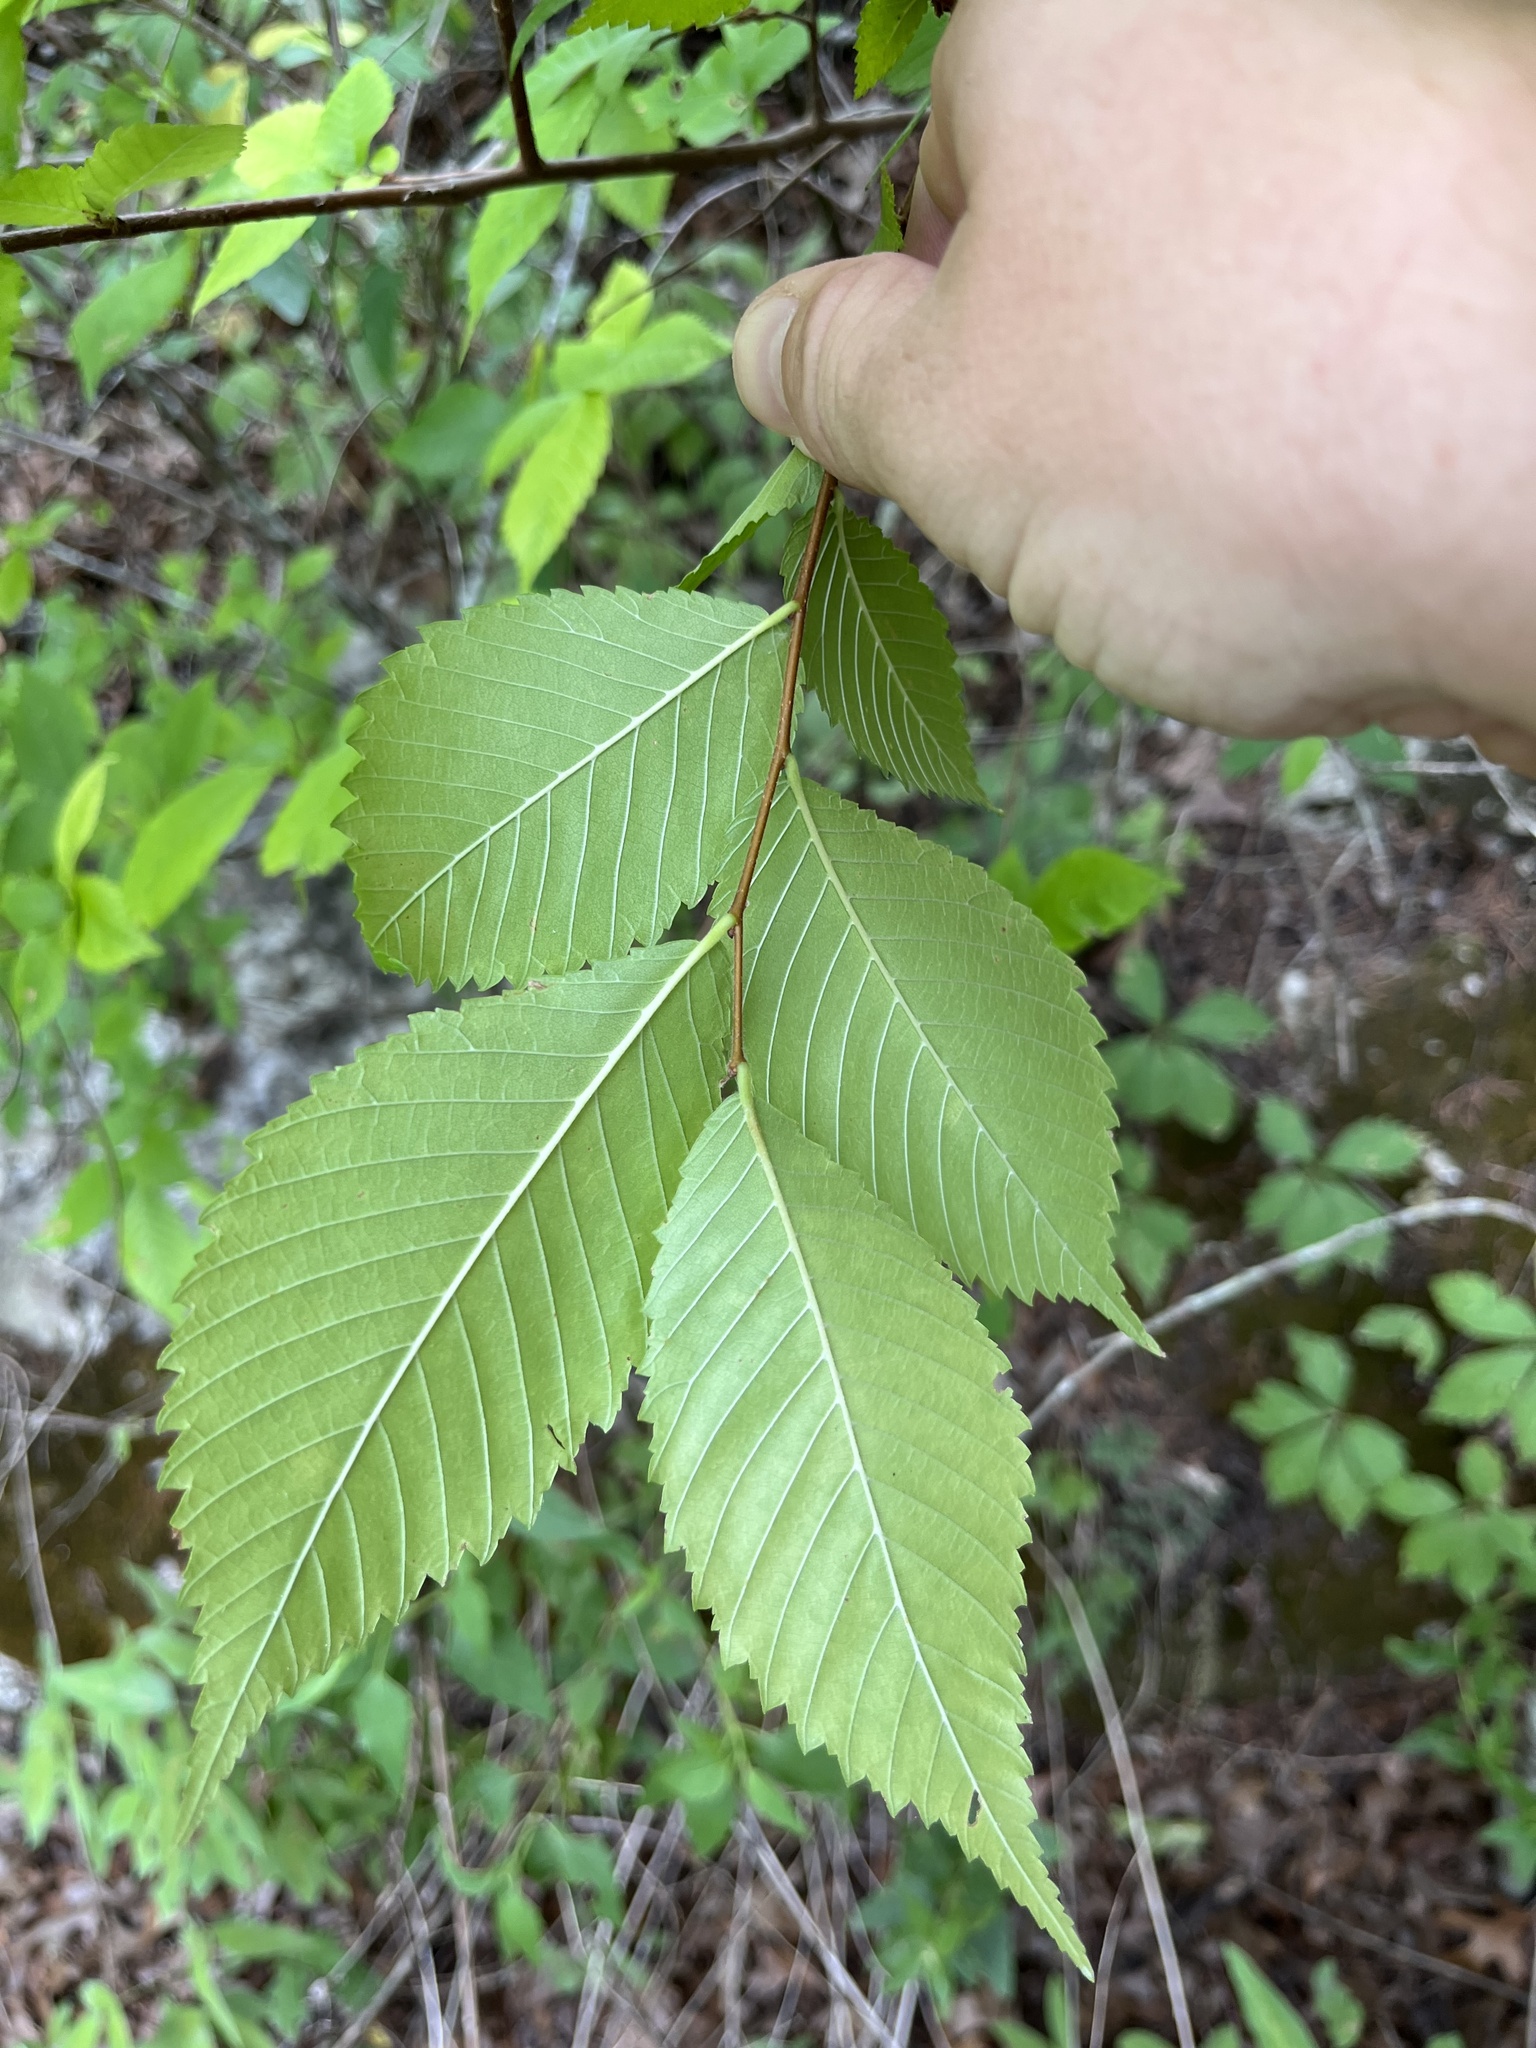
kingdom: Plantae
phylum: Tracheophyta
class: Magnoliopsida
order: Rosales
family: Ulmaceae
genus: Ulmus
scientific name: Ulmus americana
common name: American elm
